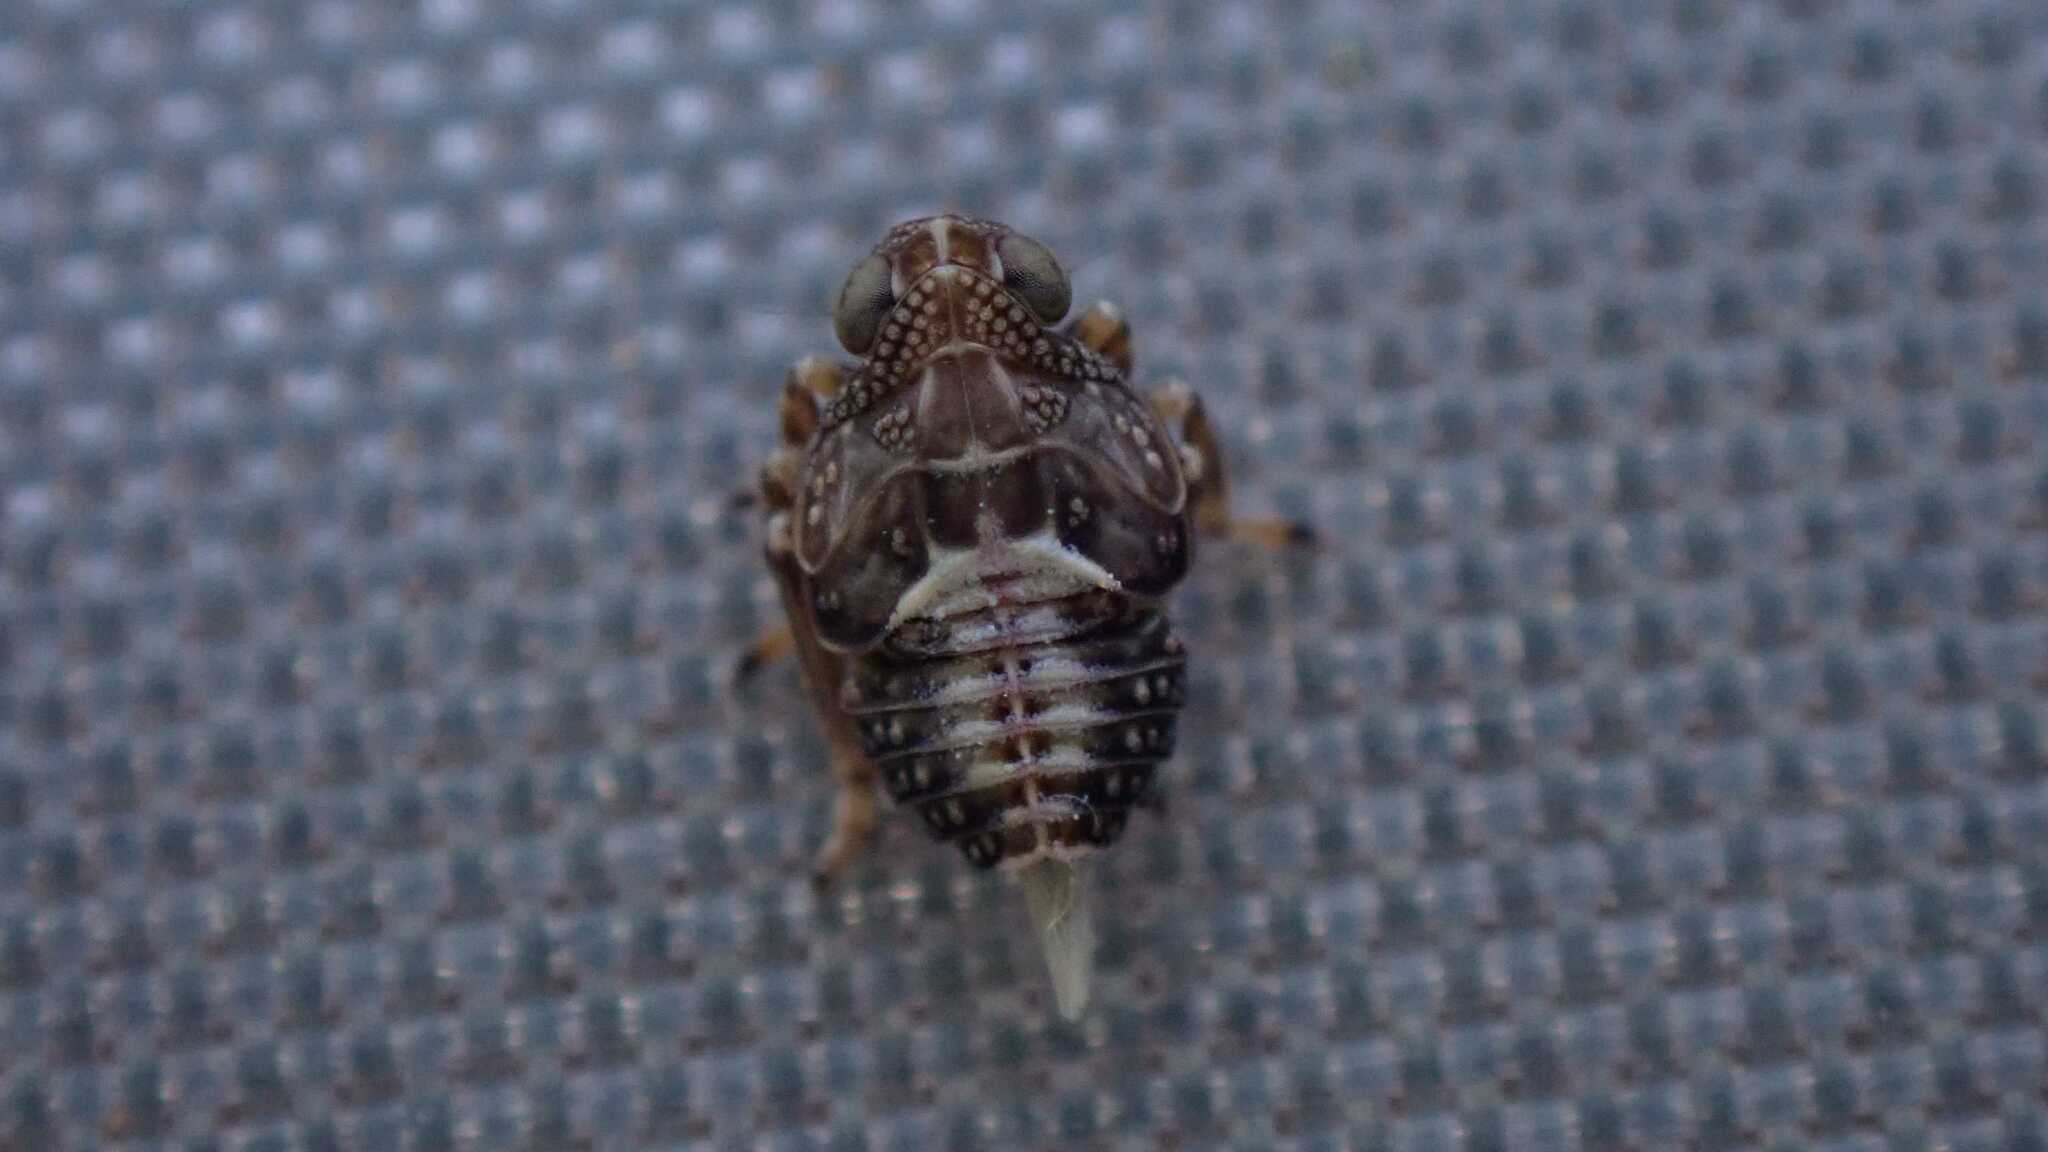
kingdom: Animalia
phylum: Arthropoda
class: Insecta
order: Hemiptera
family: Issidae
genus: Issus
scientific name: Issus
